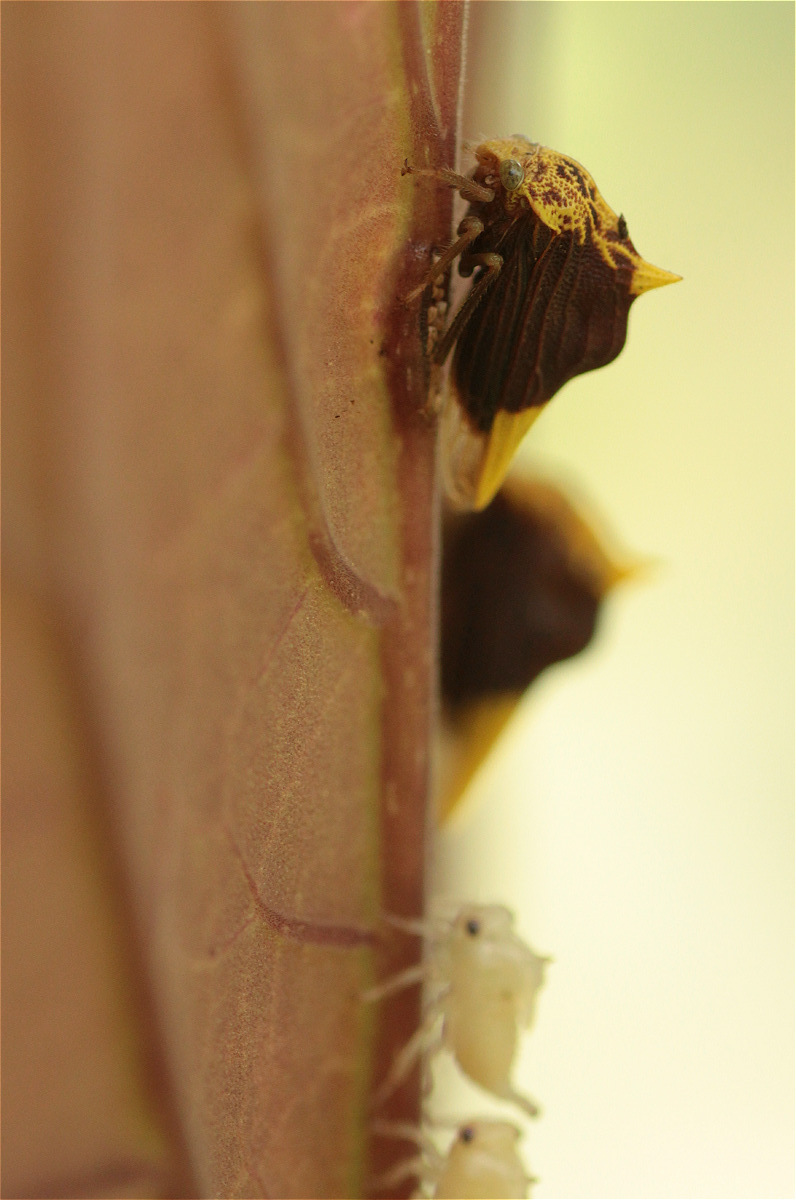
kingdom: Animalia
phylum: Arthropoda
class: Insecta
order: Hemiptera
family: Membracidae
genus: Ennya
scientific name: Ennya chrysura
